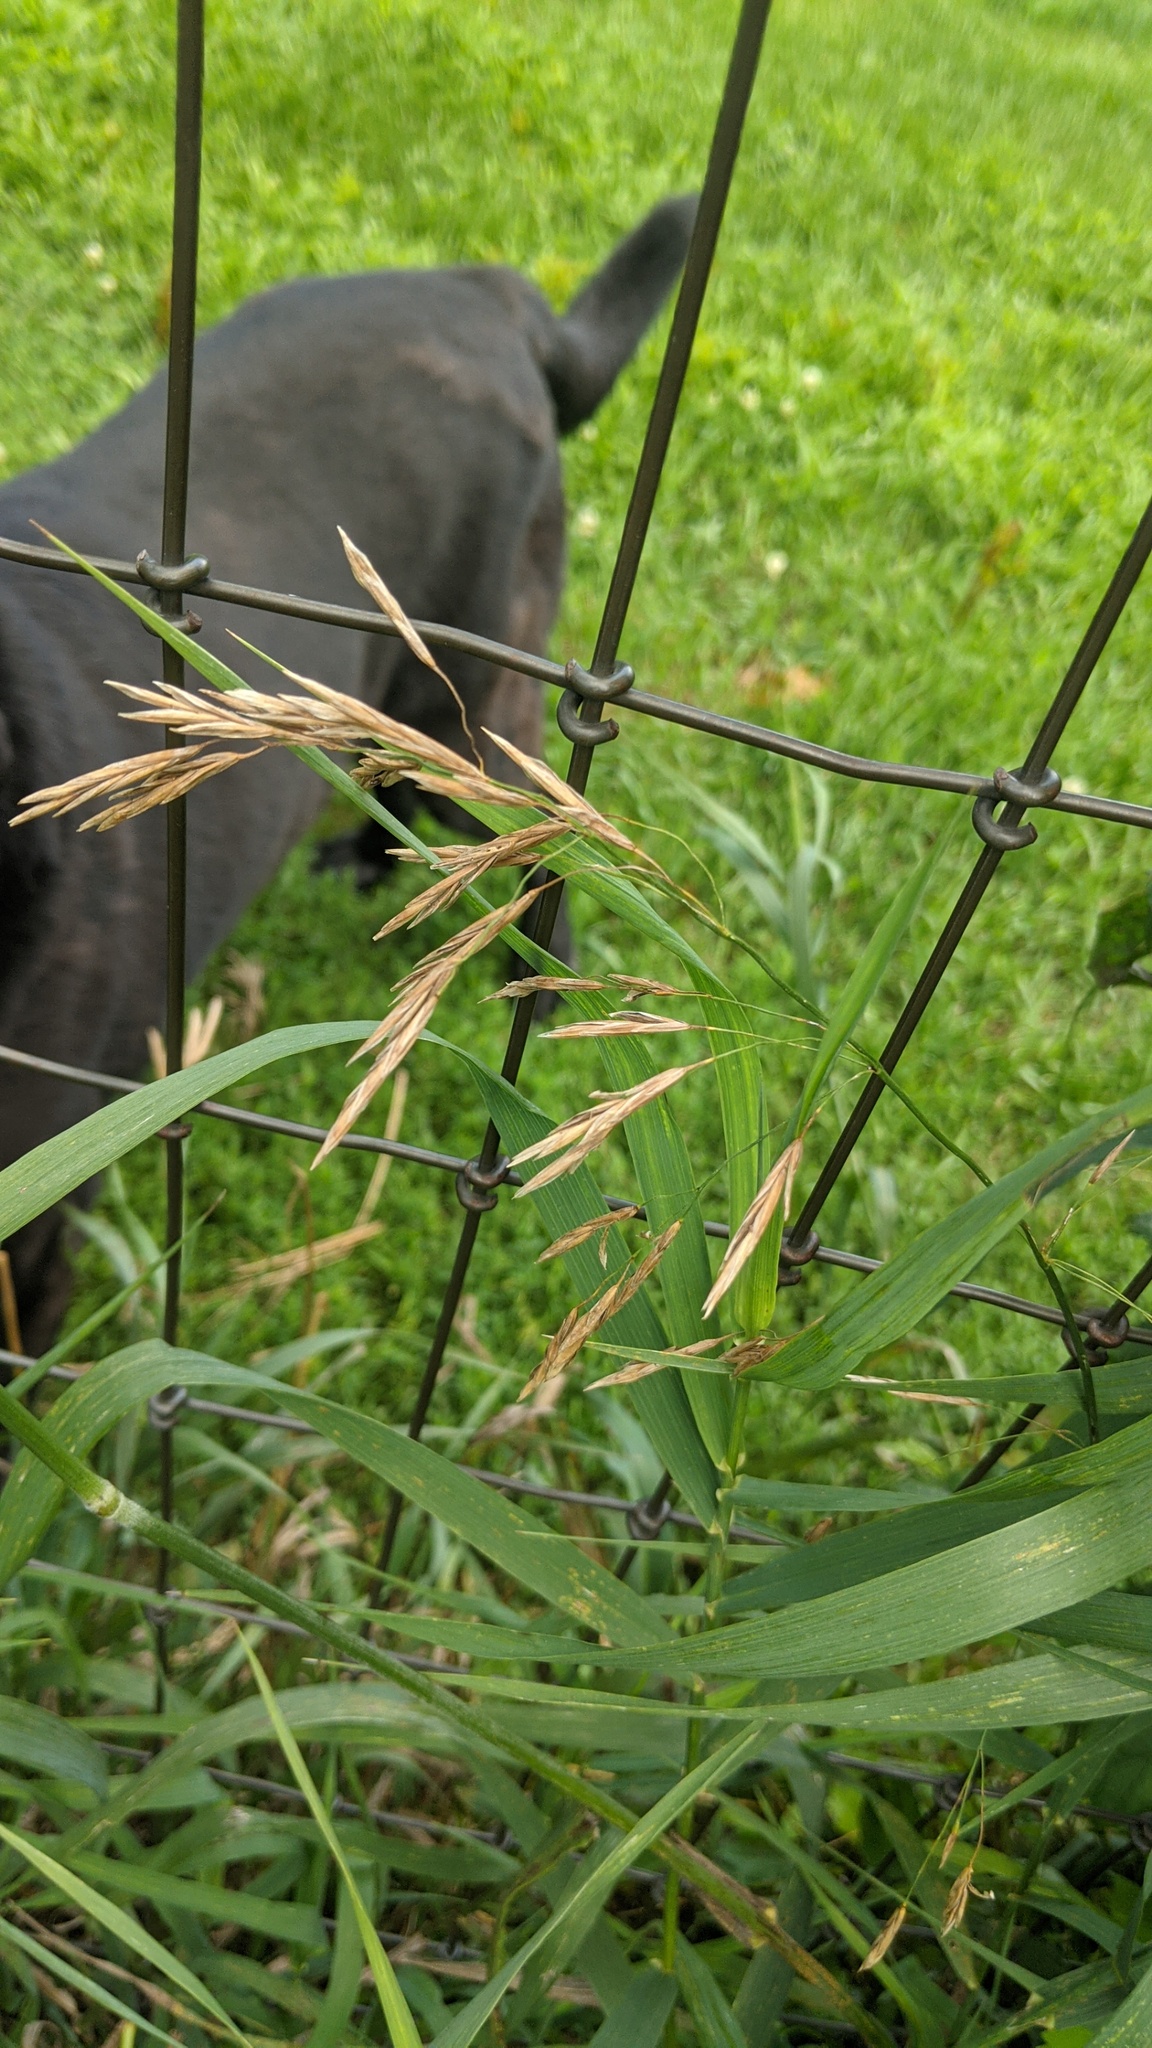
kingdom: Plantae
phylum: Tracheophyta
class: Liliopsida
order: Poales
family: Poaceae
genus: Bromus
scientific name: Bromus inermis
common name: Smooth brome
